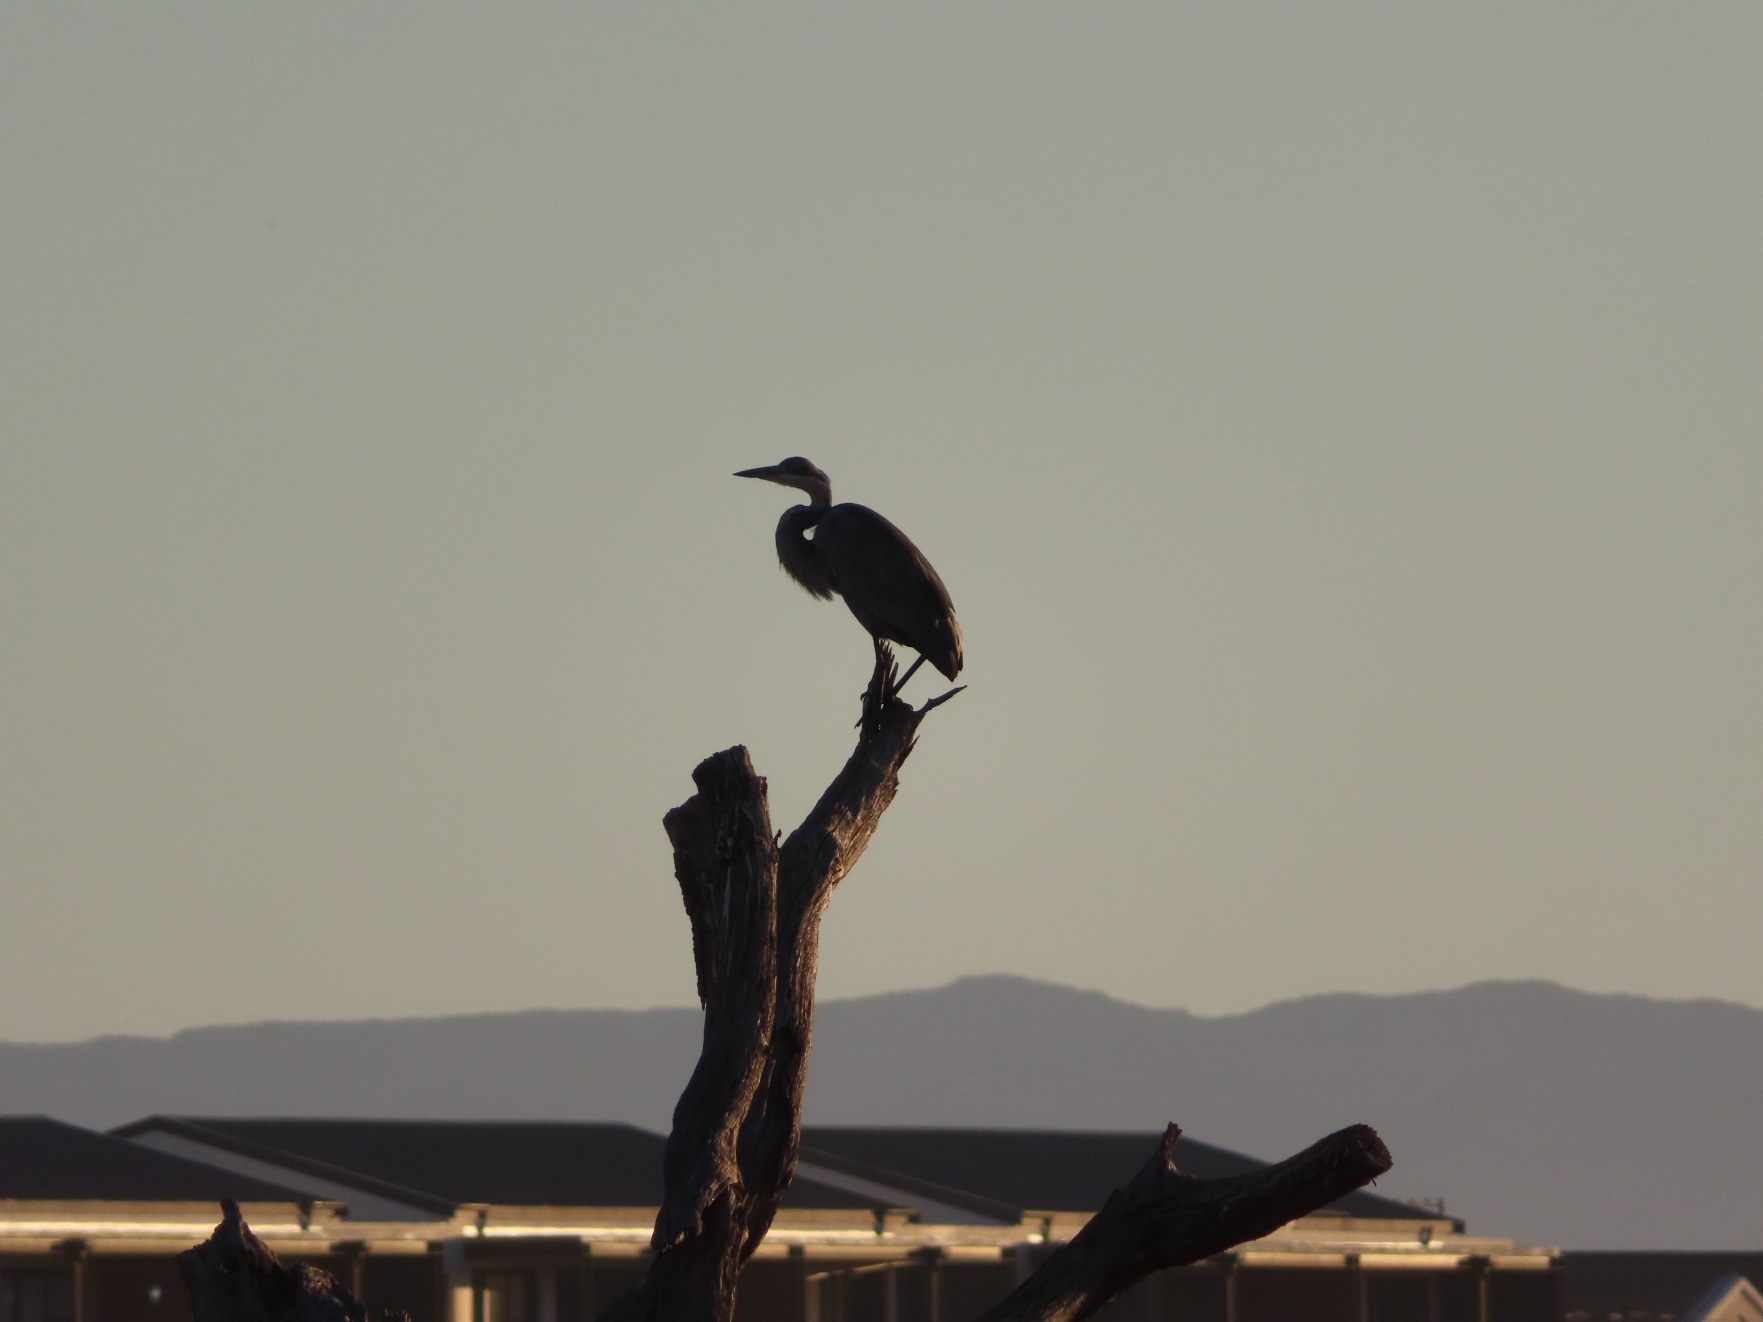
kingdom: Animalia
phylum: Chordata
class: Aves
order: Pelecaniformes
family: Ardeidae
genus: Ardea
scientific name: Ardea melanocephala
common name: Black-headed heron
